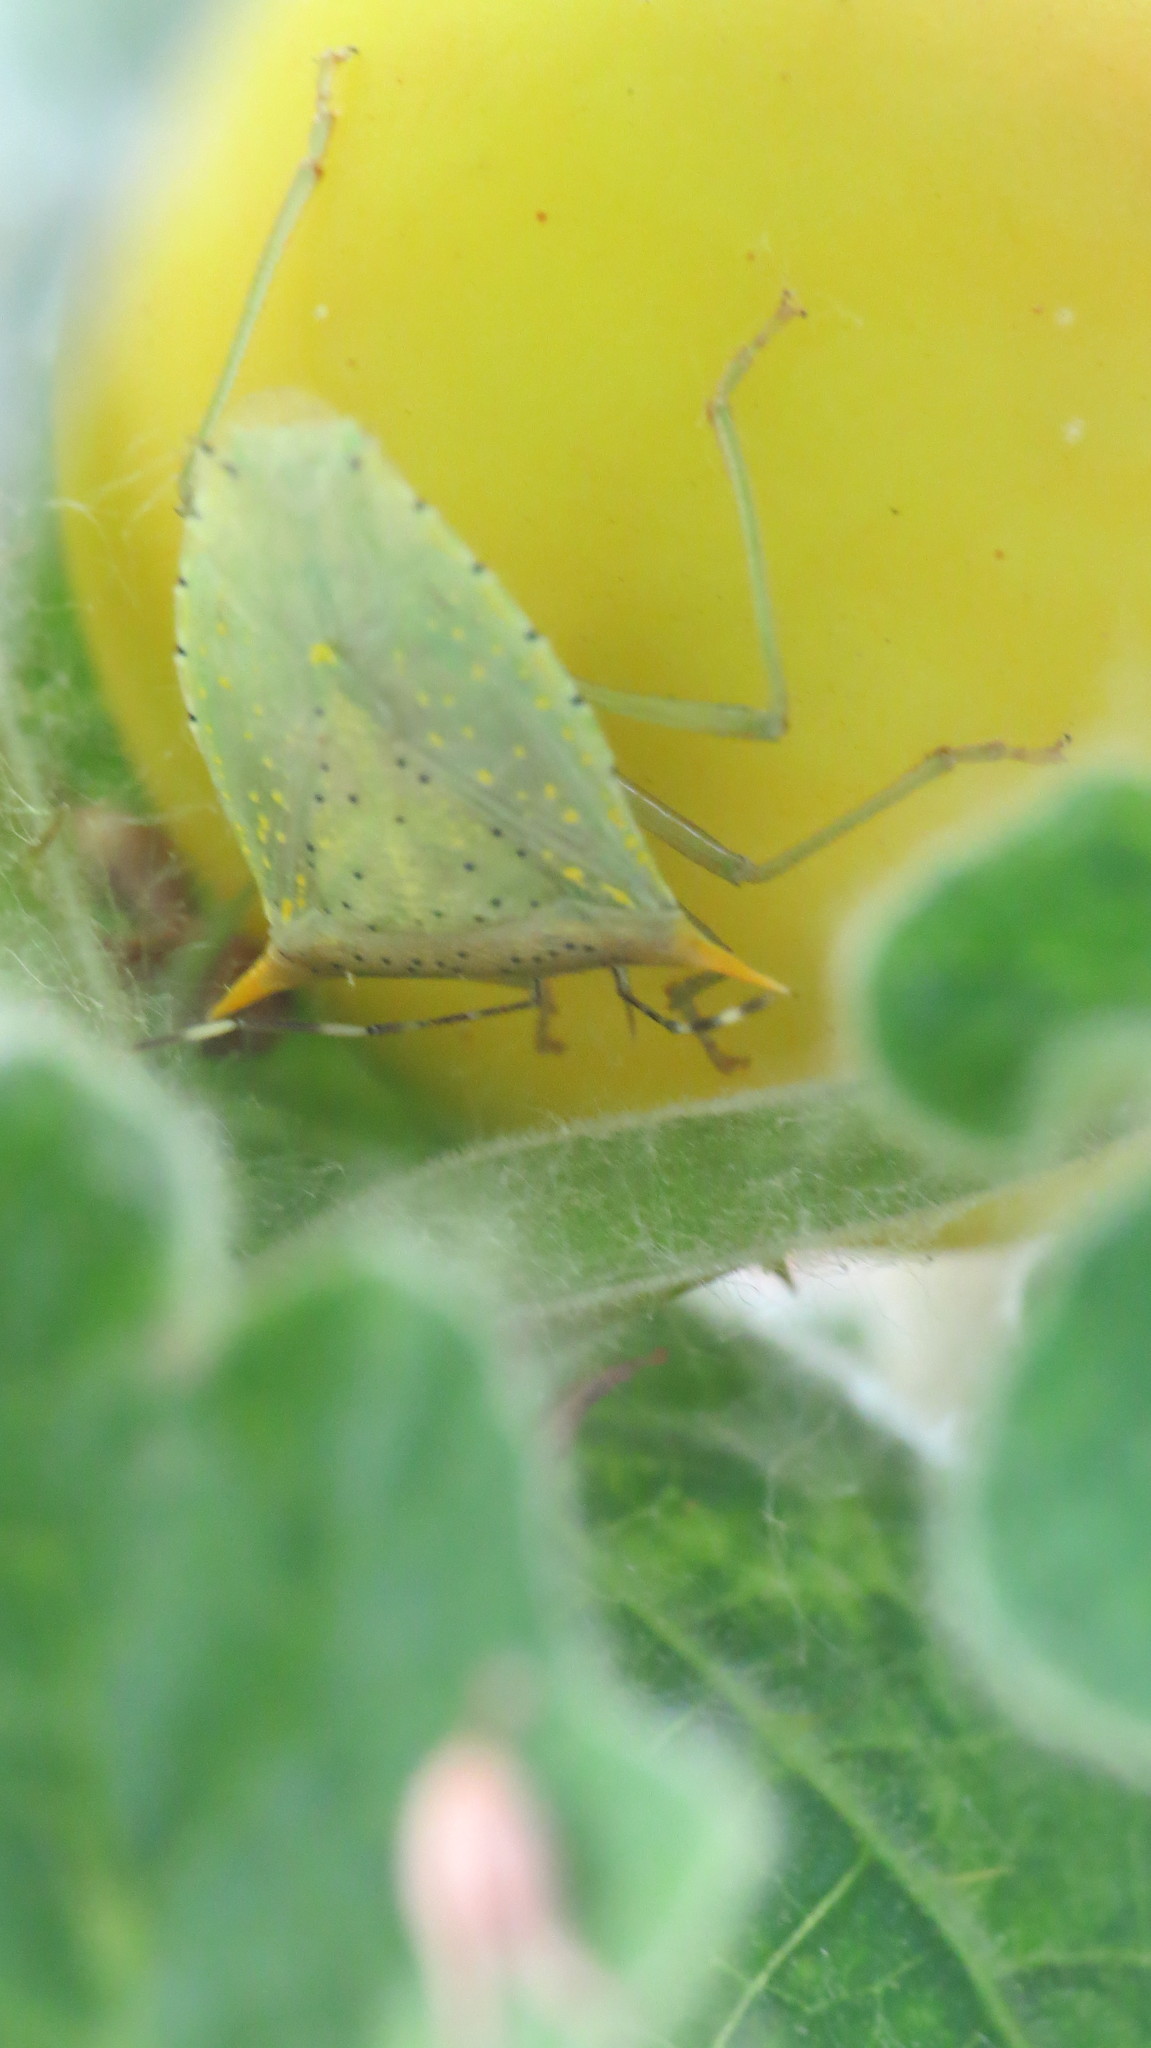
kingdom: Animalia
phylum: Arthropoda
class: Insecta
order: Hemiptera
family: Pentatomidae
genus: Arvelius
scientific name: Arvelius albopunctatus
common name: Tomato stink bug
